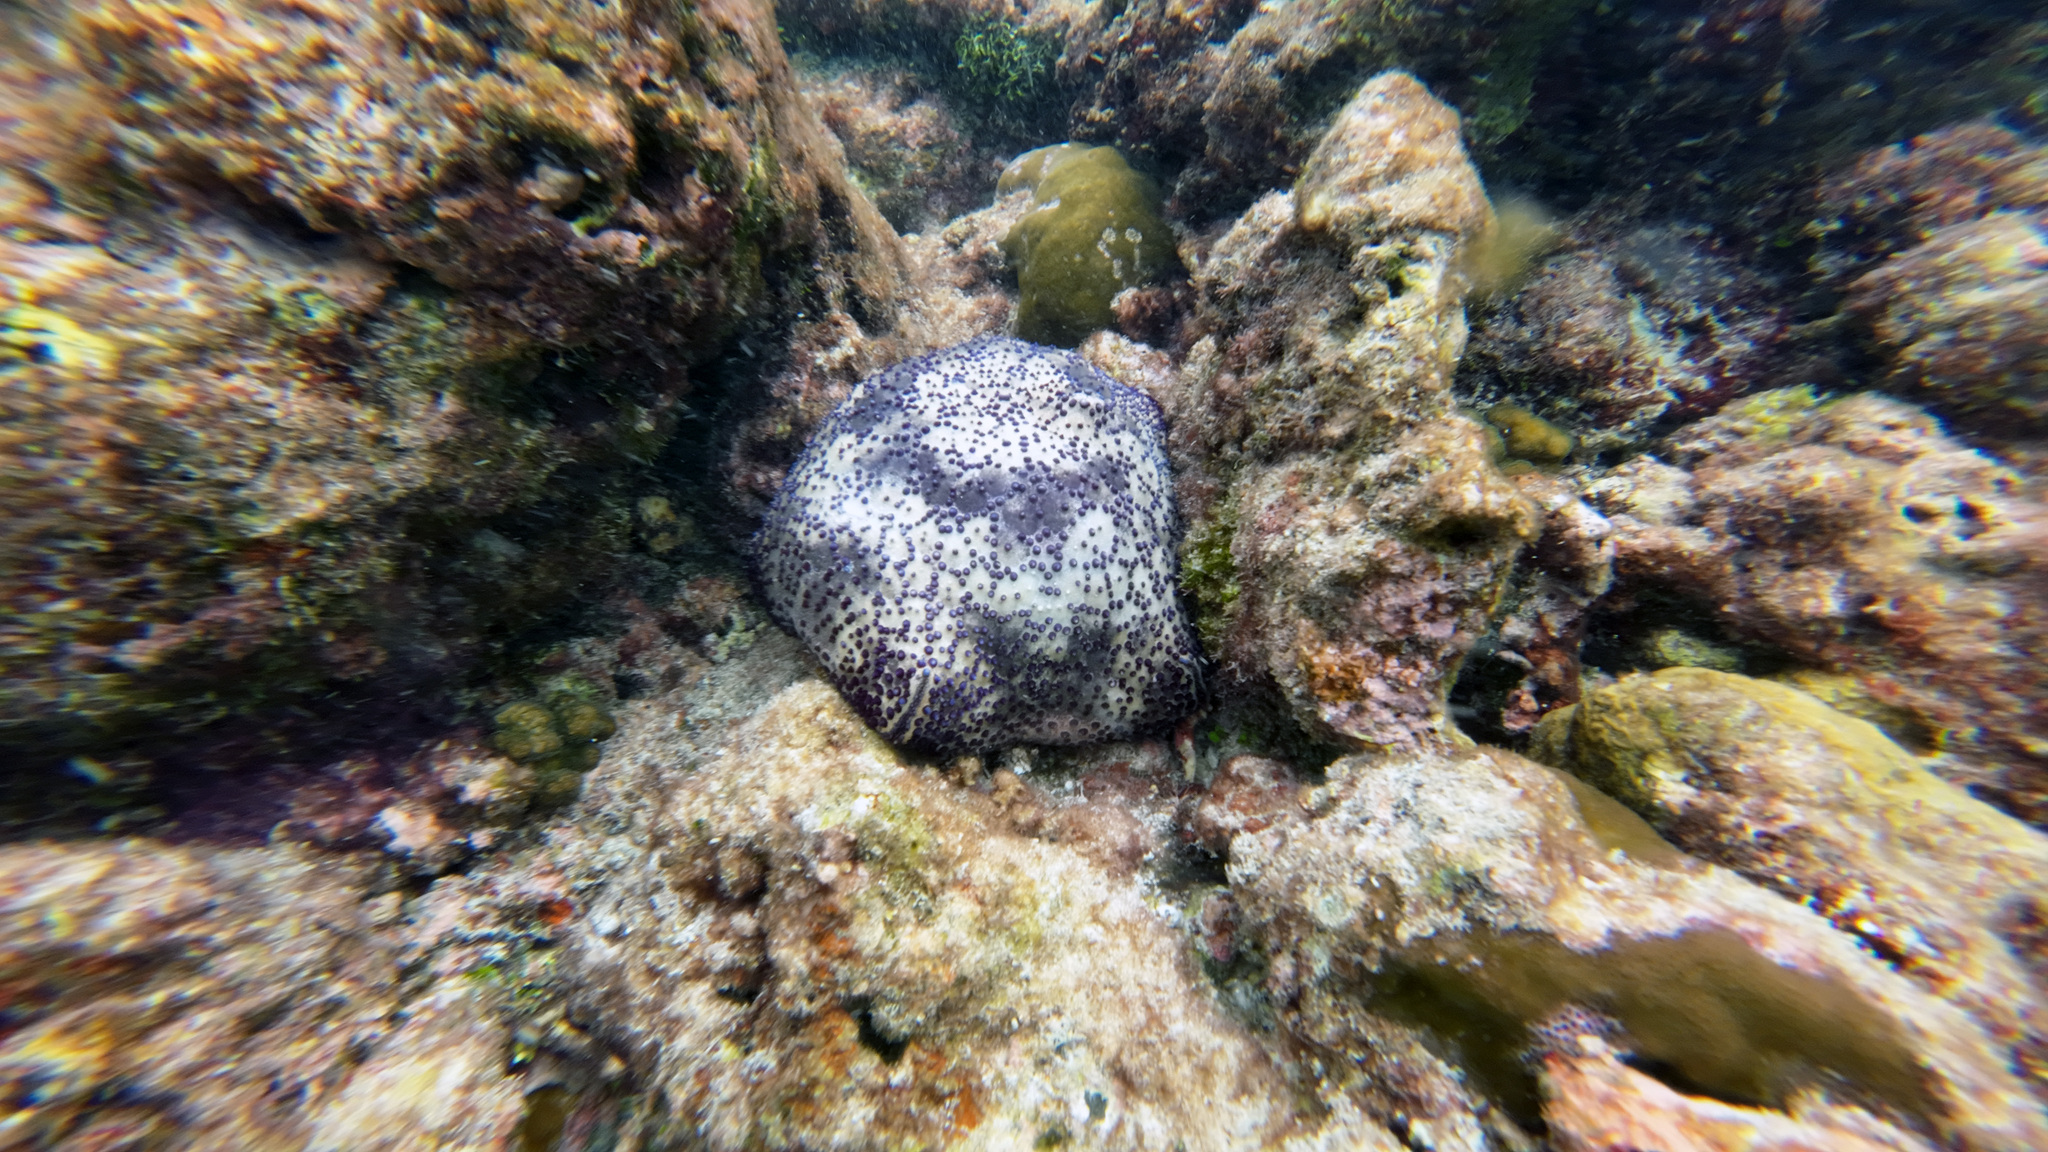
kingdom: Animalia
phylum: Echinodermata
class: Asteroidea
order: Valvatida
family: Oreasteridae
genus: Culcita
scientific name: Culcita schmideliana
